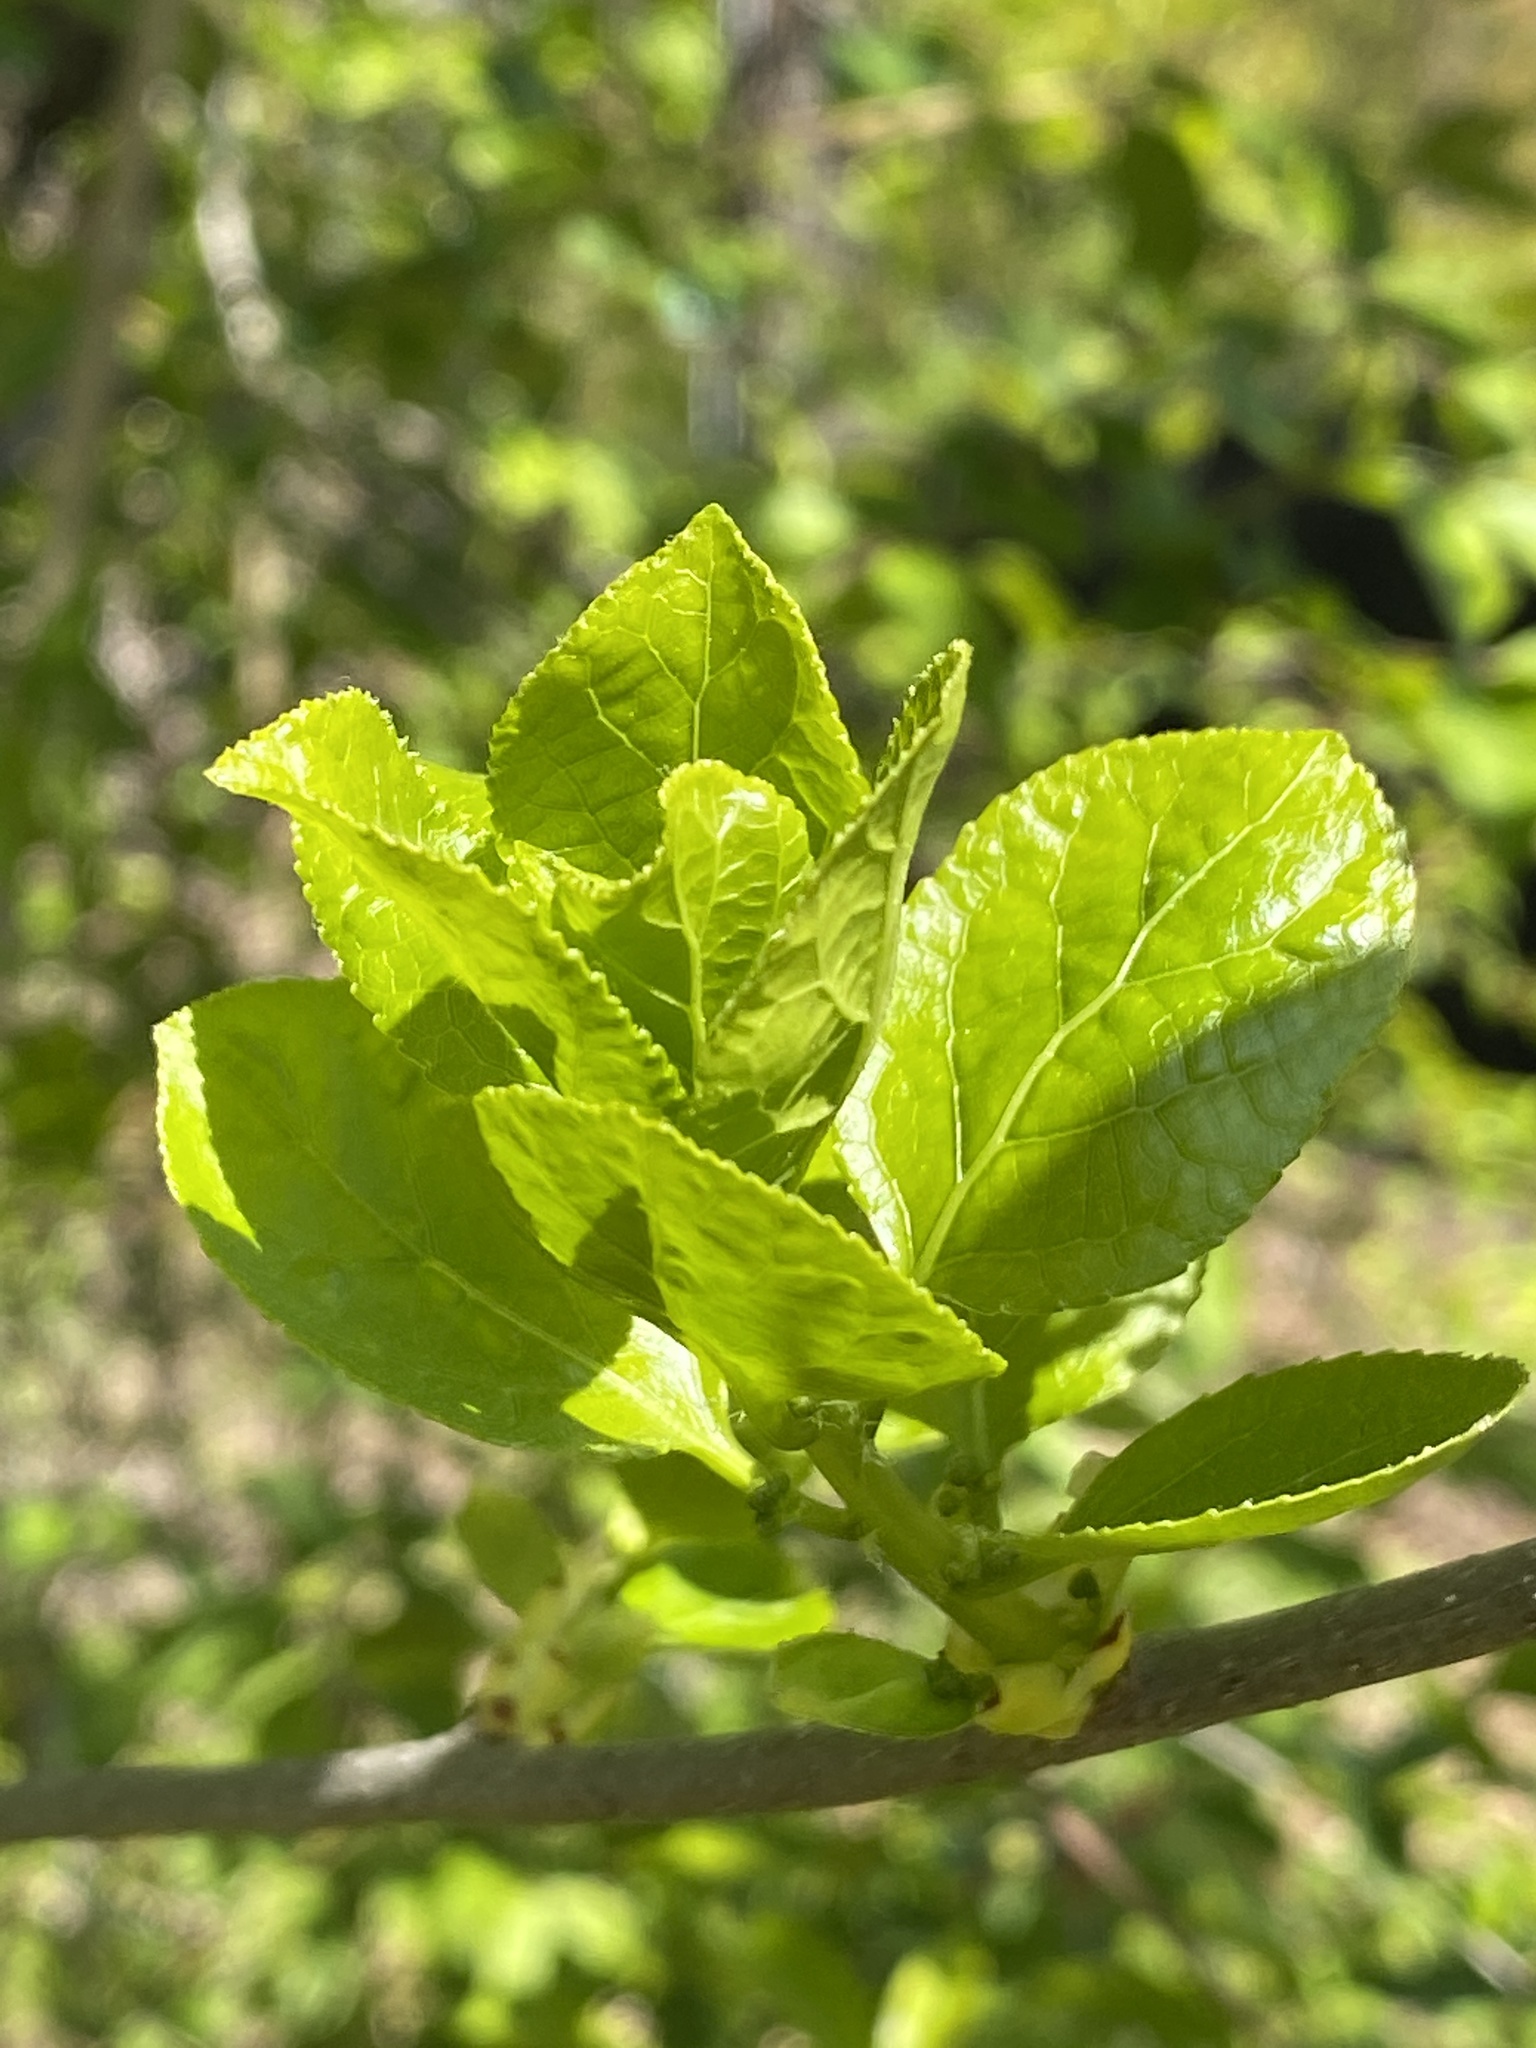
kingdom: Plantae
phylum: Tracheophyta
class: Magnoliopsida
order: Celastrales
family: Celastraceae
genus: Celastrus
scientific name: Celastrus orbiculatus
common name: Oriental bittersweet
